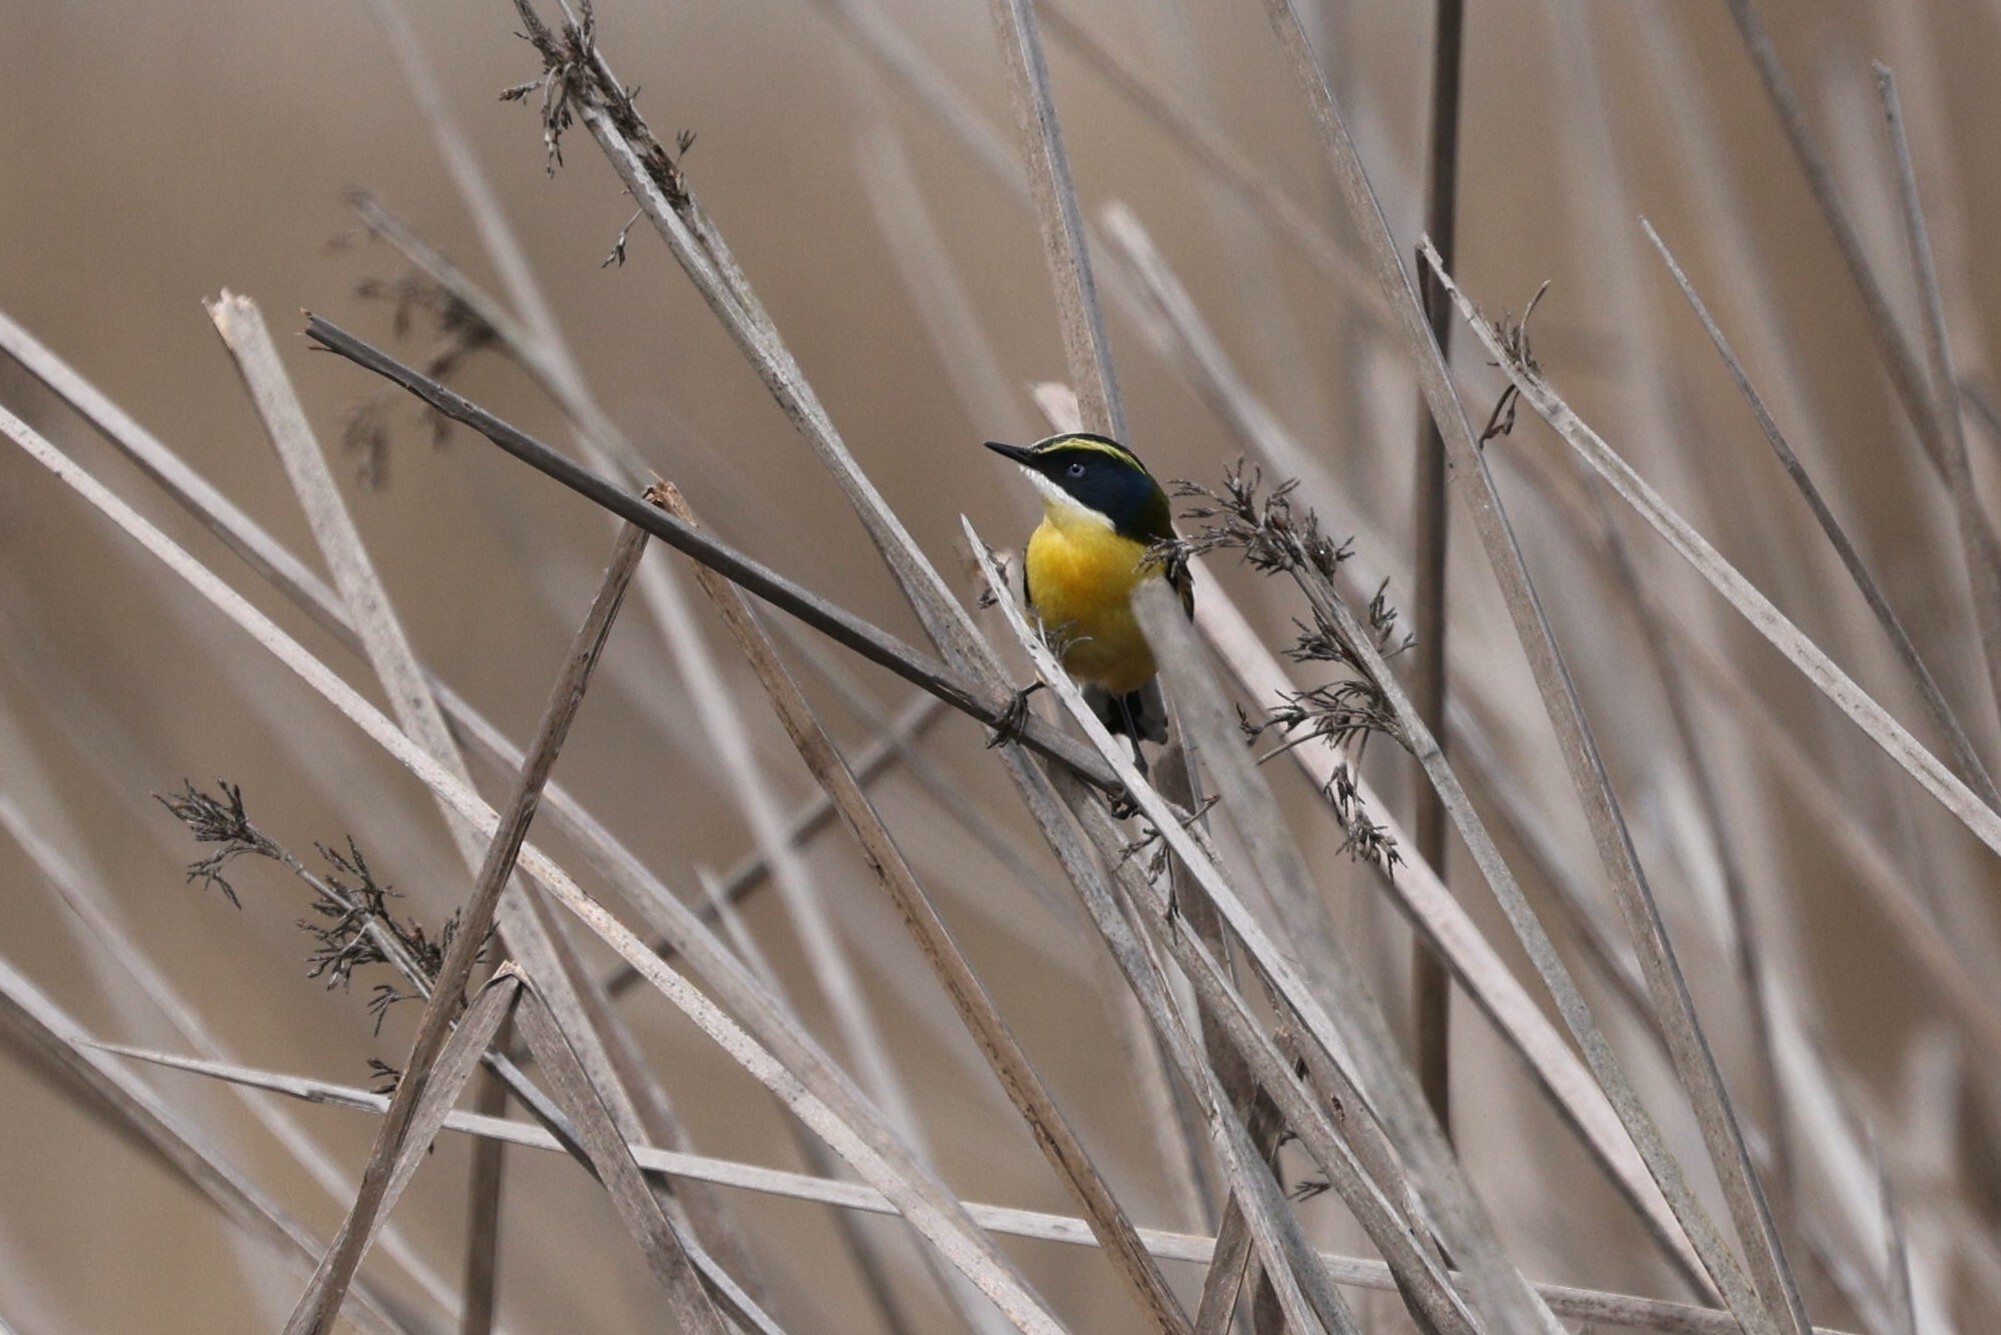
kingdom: Animalia
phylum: Chordata
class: Aves
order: Passeriformes
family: Tyrannidae
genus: Tachuris
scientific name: Tachuris rubrigastra
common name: Many-colored rush tyrant
